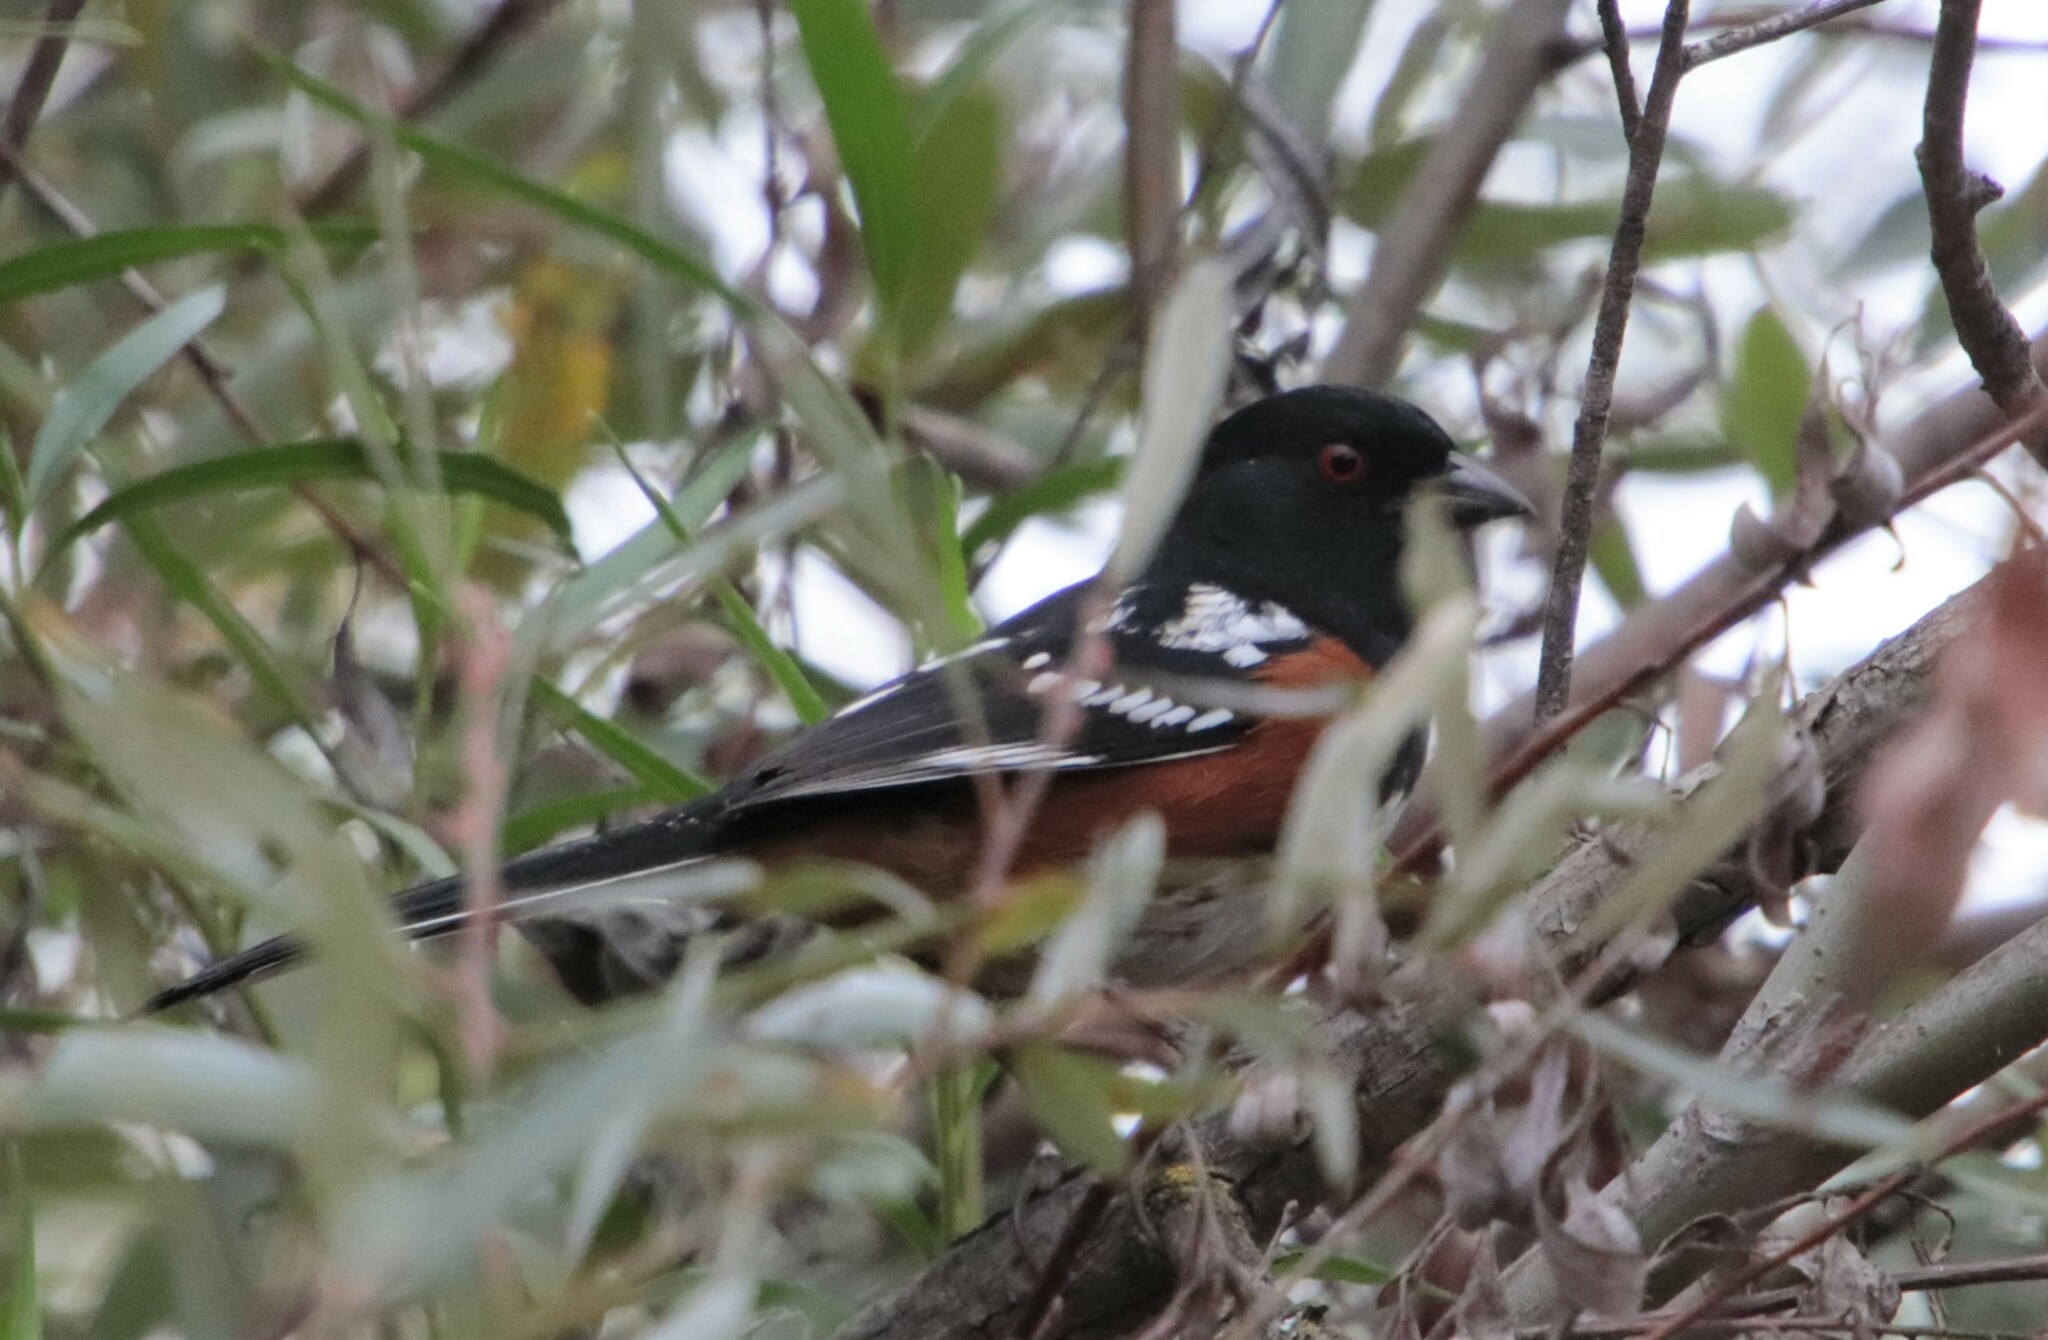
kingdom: Animalia
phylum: Chordata
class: Aves
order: Passeriformes
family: Passerellidae
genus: Pipilo
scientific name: Pipilo maculatus
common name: Spotted towhee
